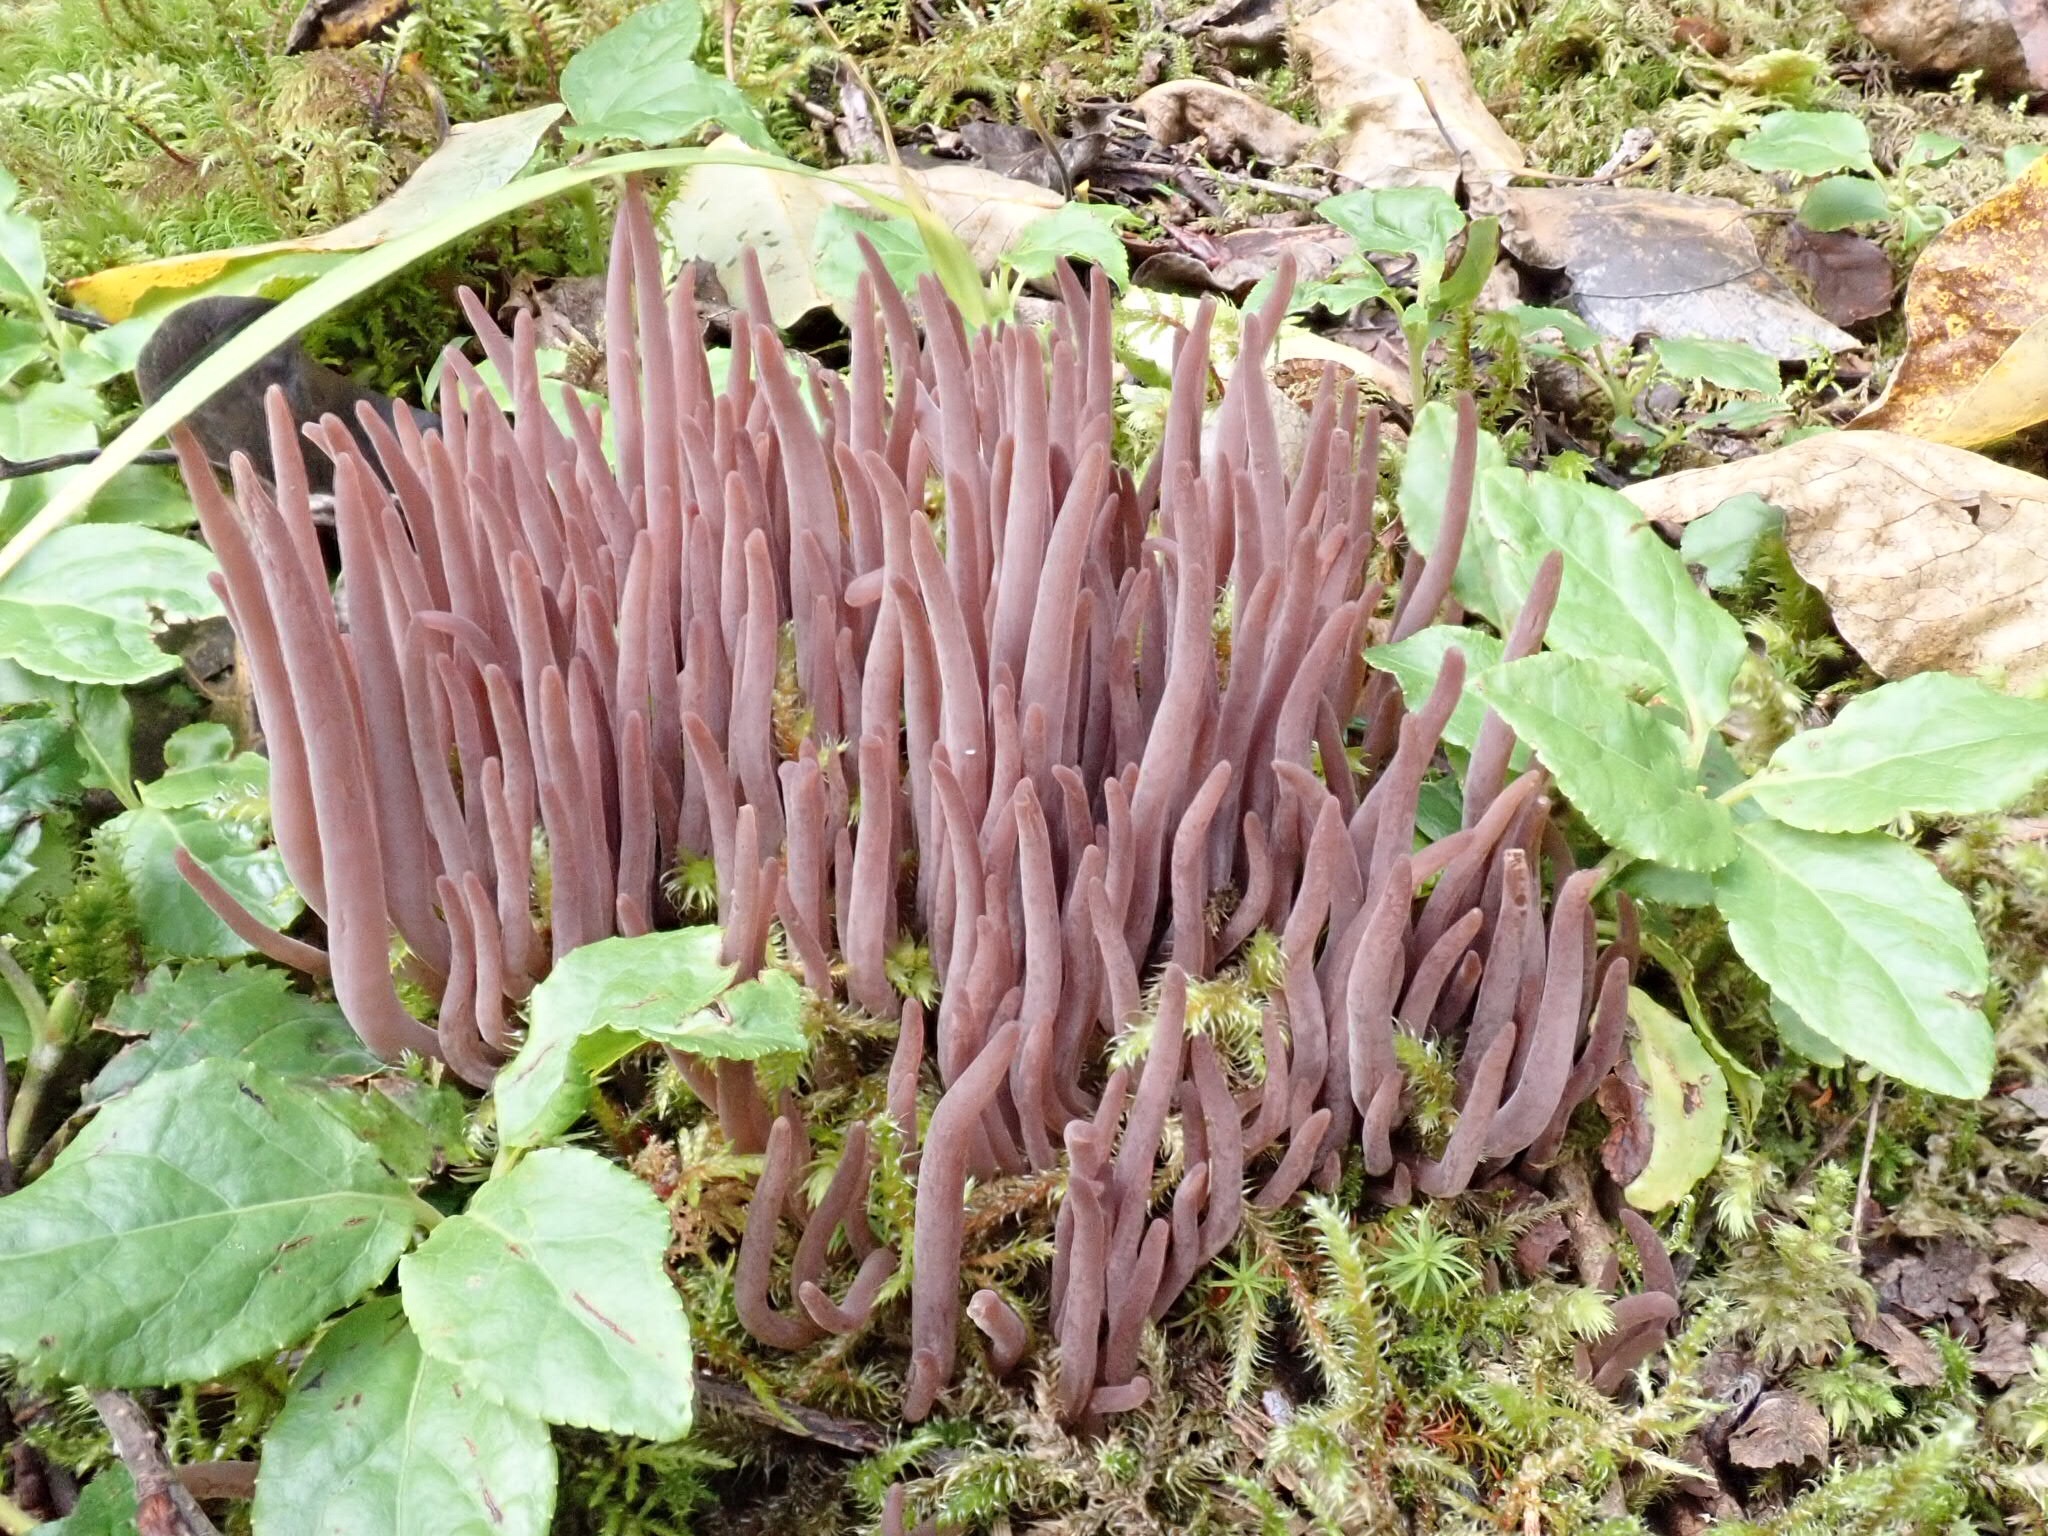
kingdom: Fungi
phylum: Basidiomycota
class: Agaricomycetes
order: Hymenochaetales
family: Rickenellaceae
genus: Alloclavaria
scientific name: Alloclavaria purpurea
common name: Purple spindles
